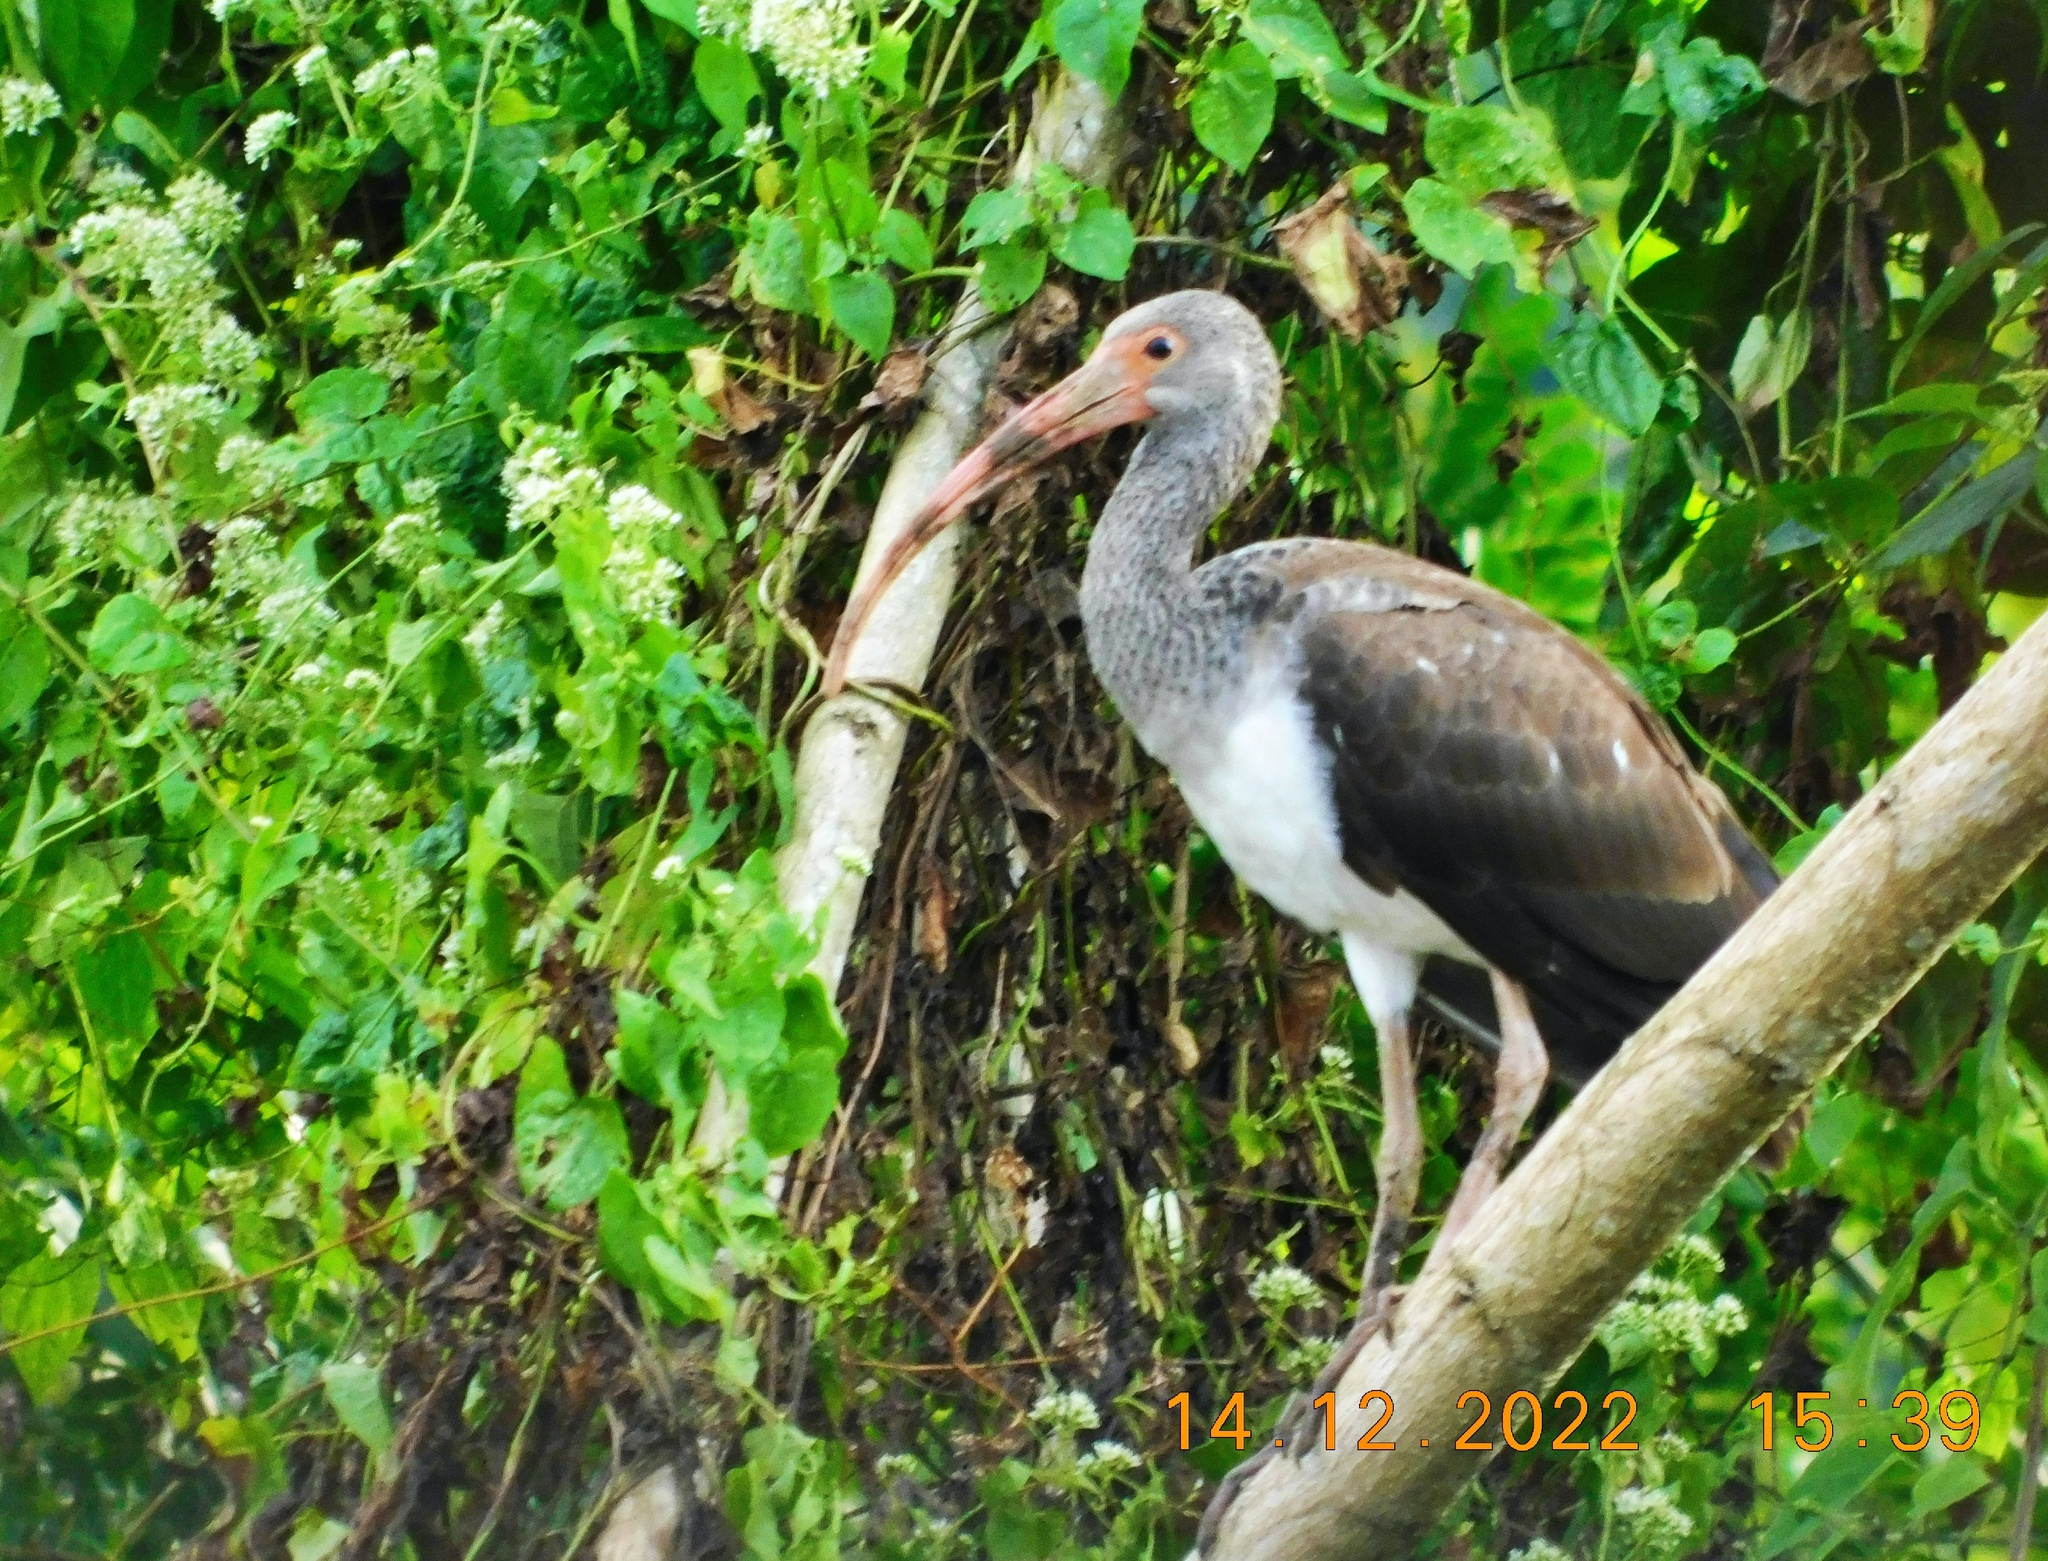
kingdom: Animalia
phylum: Chordata
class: Aves
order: Pelecaniformes
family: Threskiornithidae
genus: Eudocimus
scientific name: Eudocimus albus
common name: White ibis
